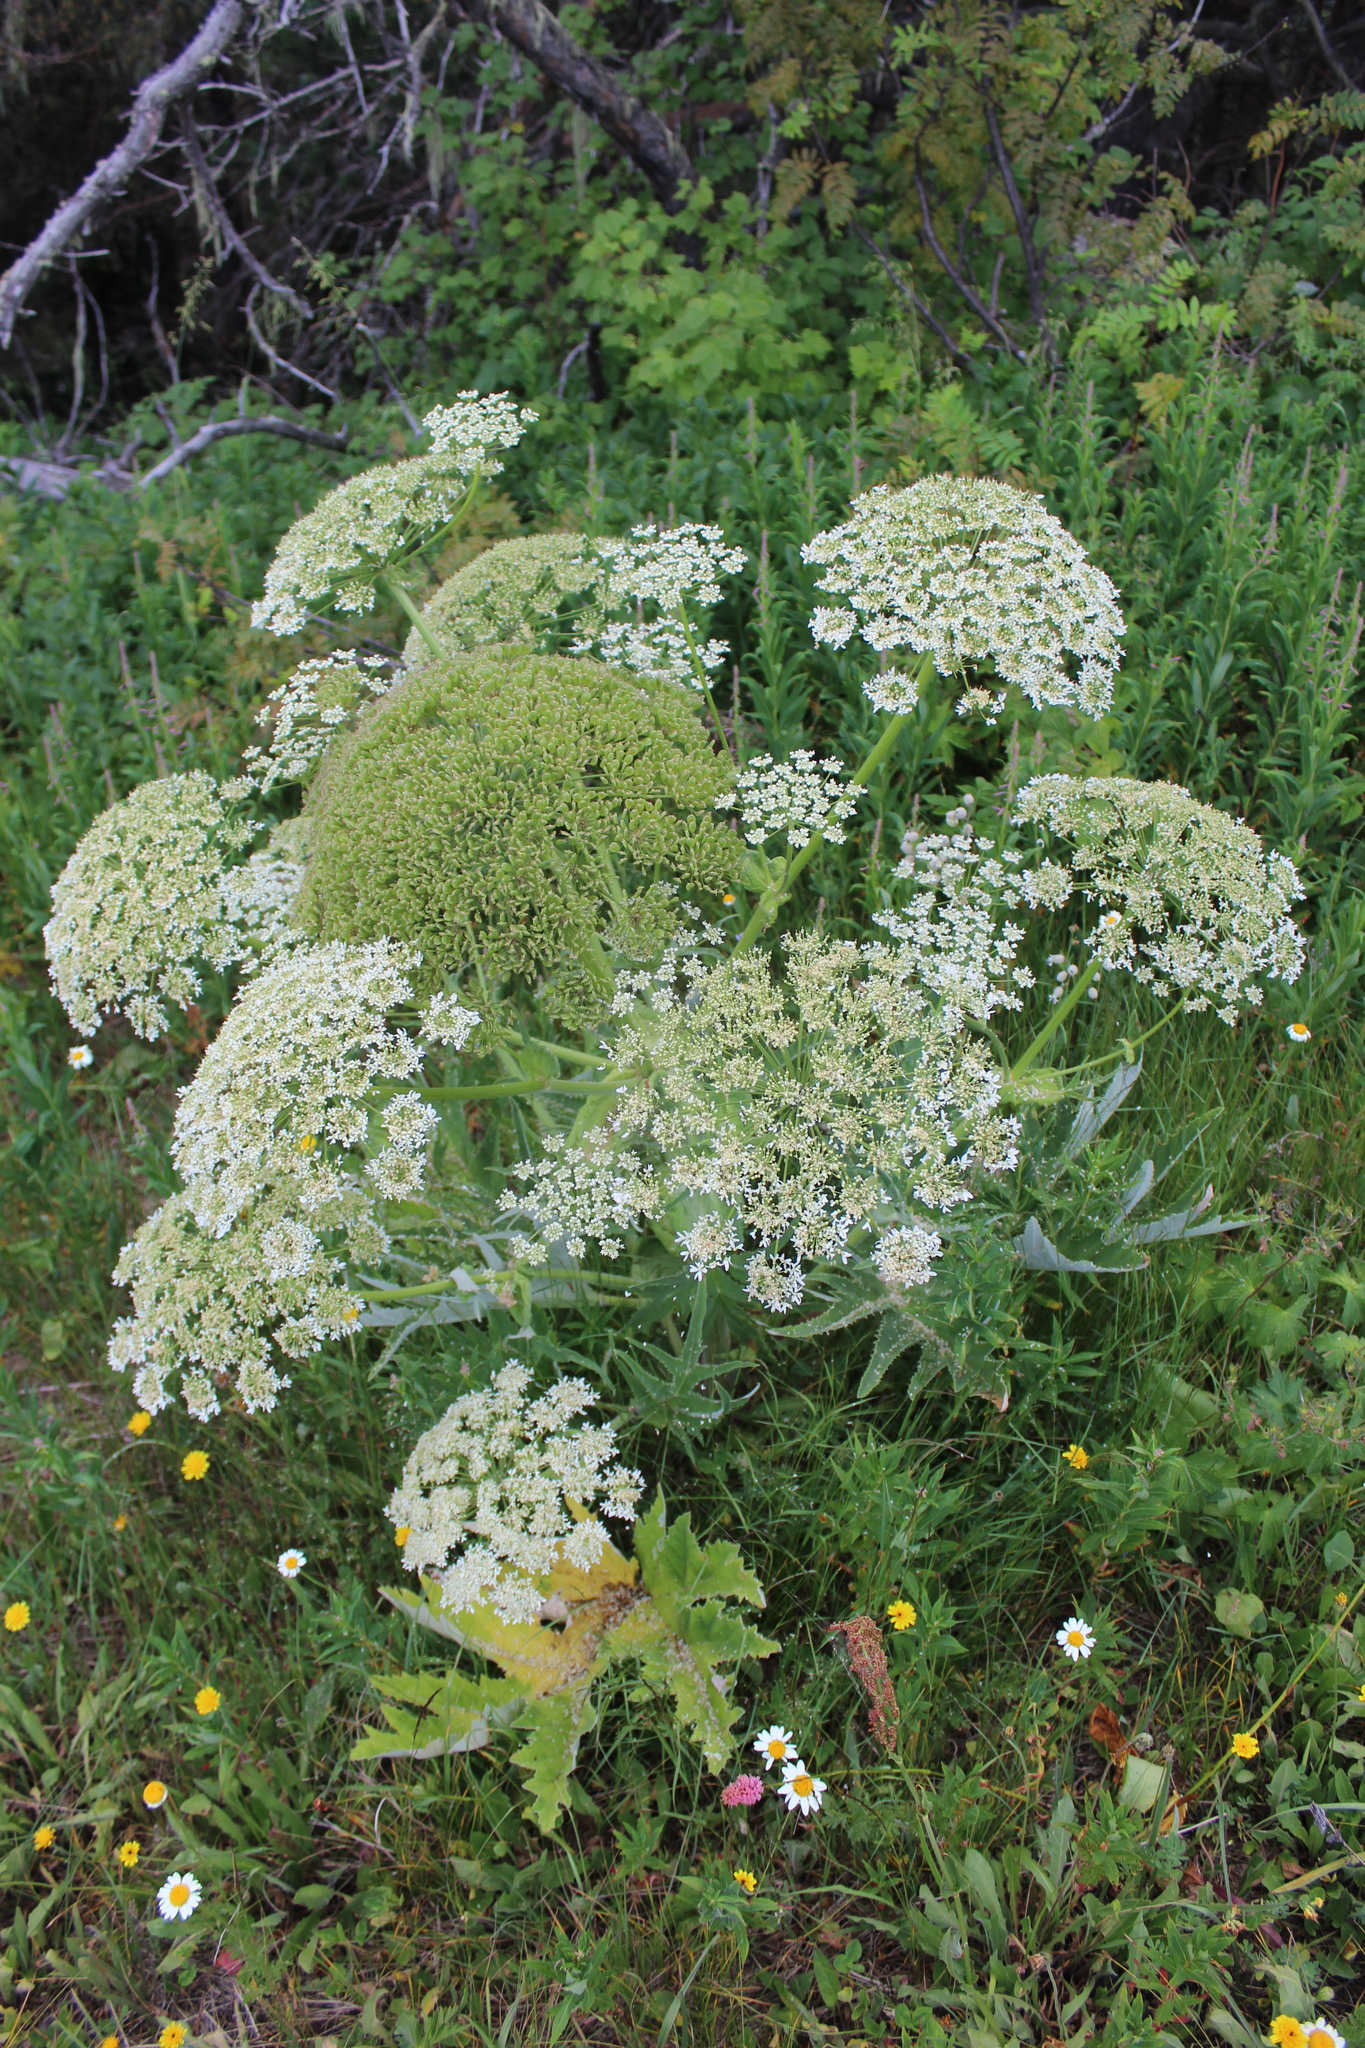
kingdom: Plantae
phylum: Tracheophyta
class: Magnoliopsida
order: Apiales
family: Apiaceae
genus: Heracleum
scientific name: Heracleum leskovii
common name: Leskov's cow-parsnip
